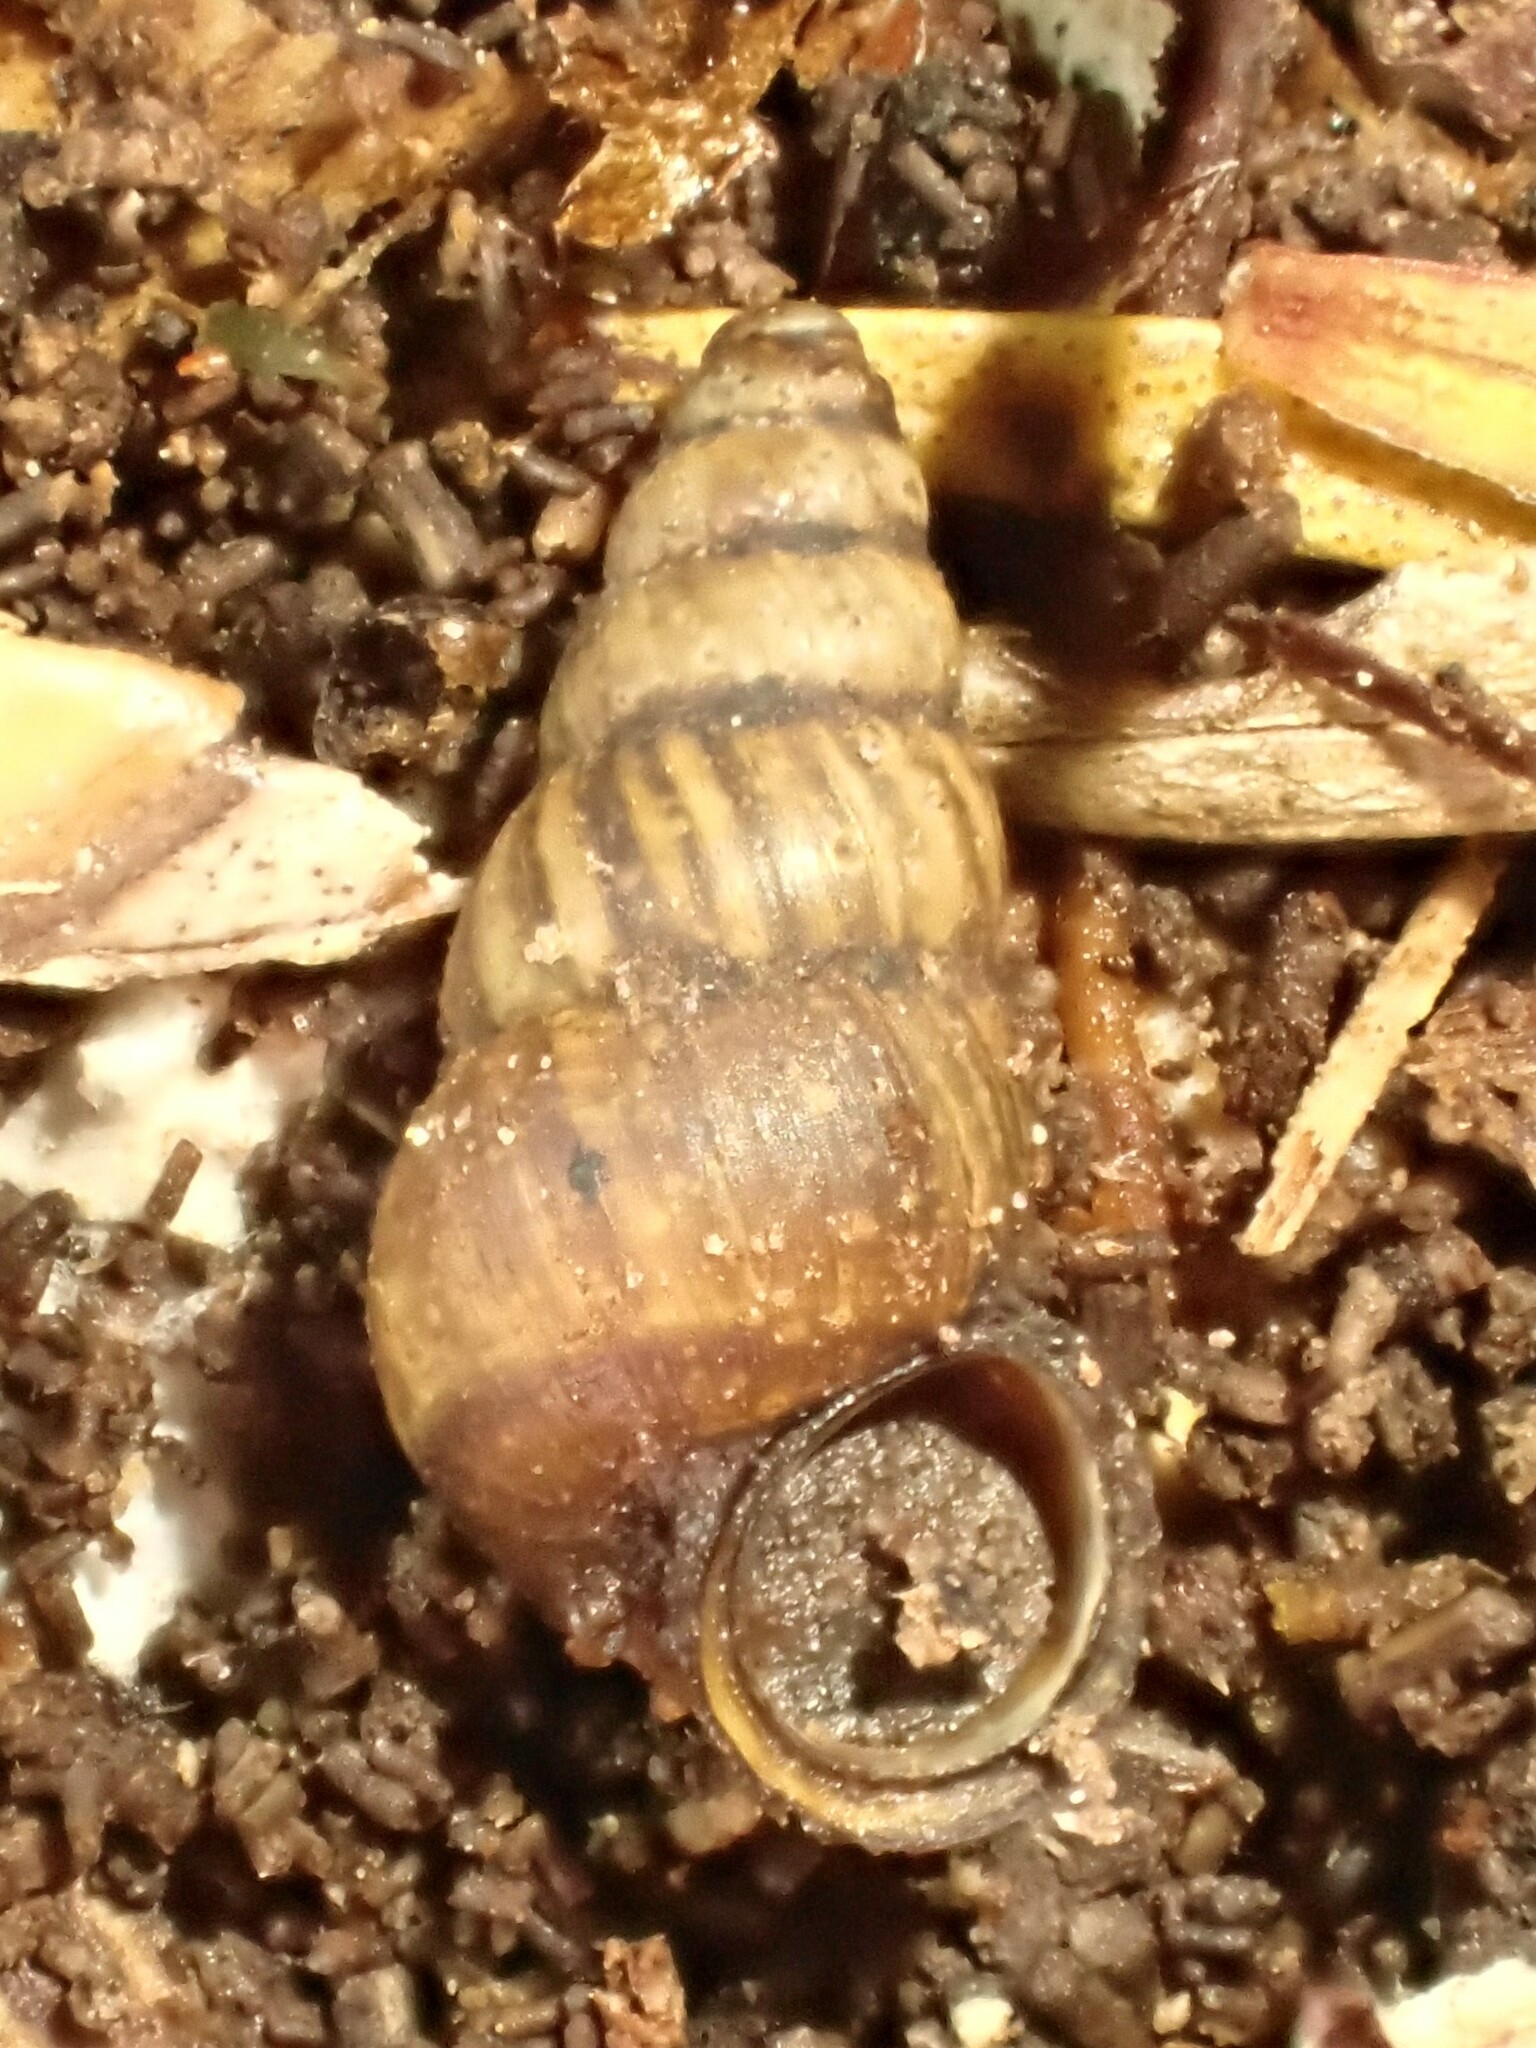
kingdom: Animalia
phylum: Mollusca
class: Gastropoda
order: Architaenioglossa
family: Pupinidae
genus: Liarea
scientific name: Liarea turriculata
